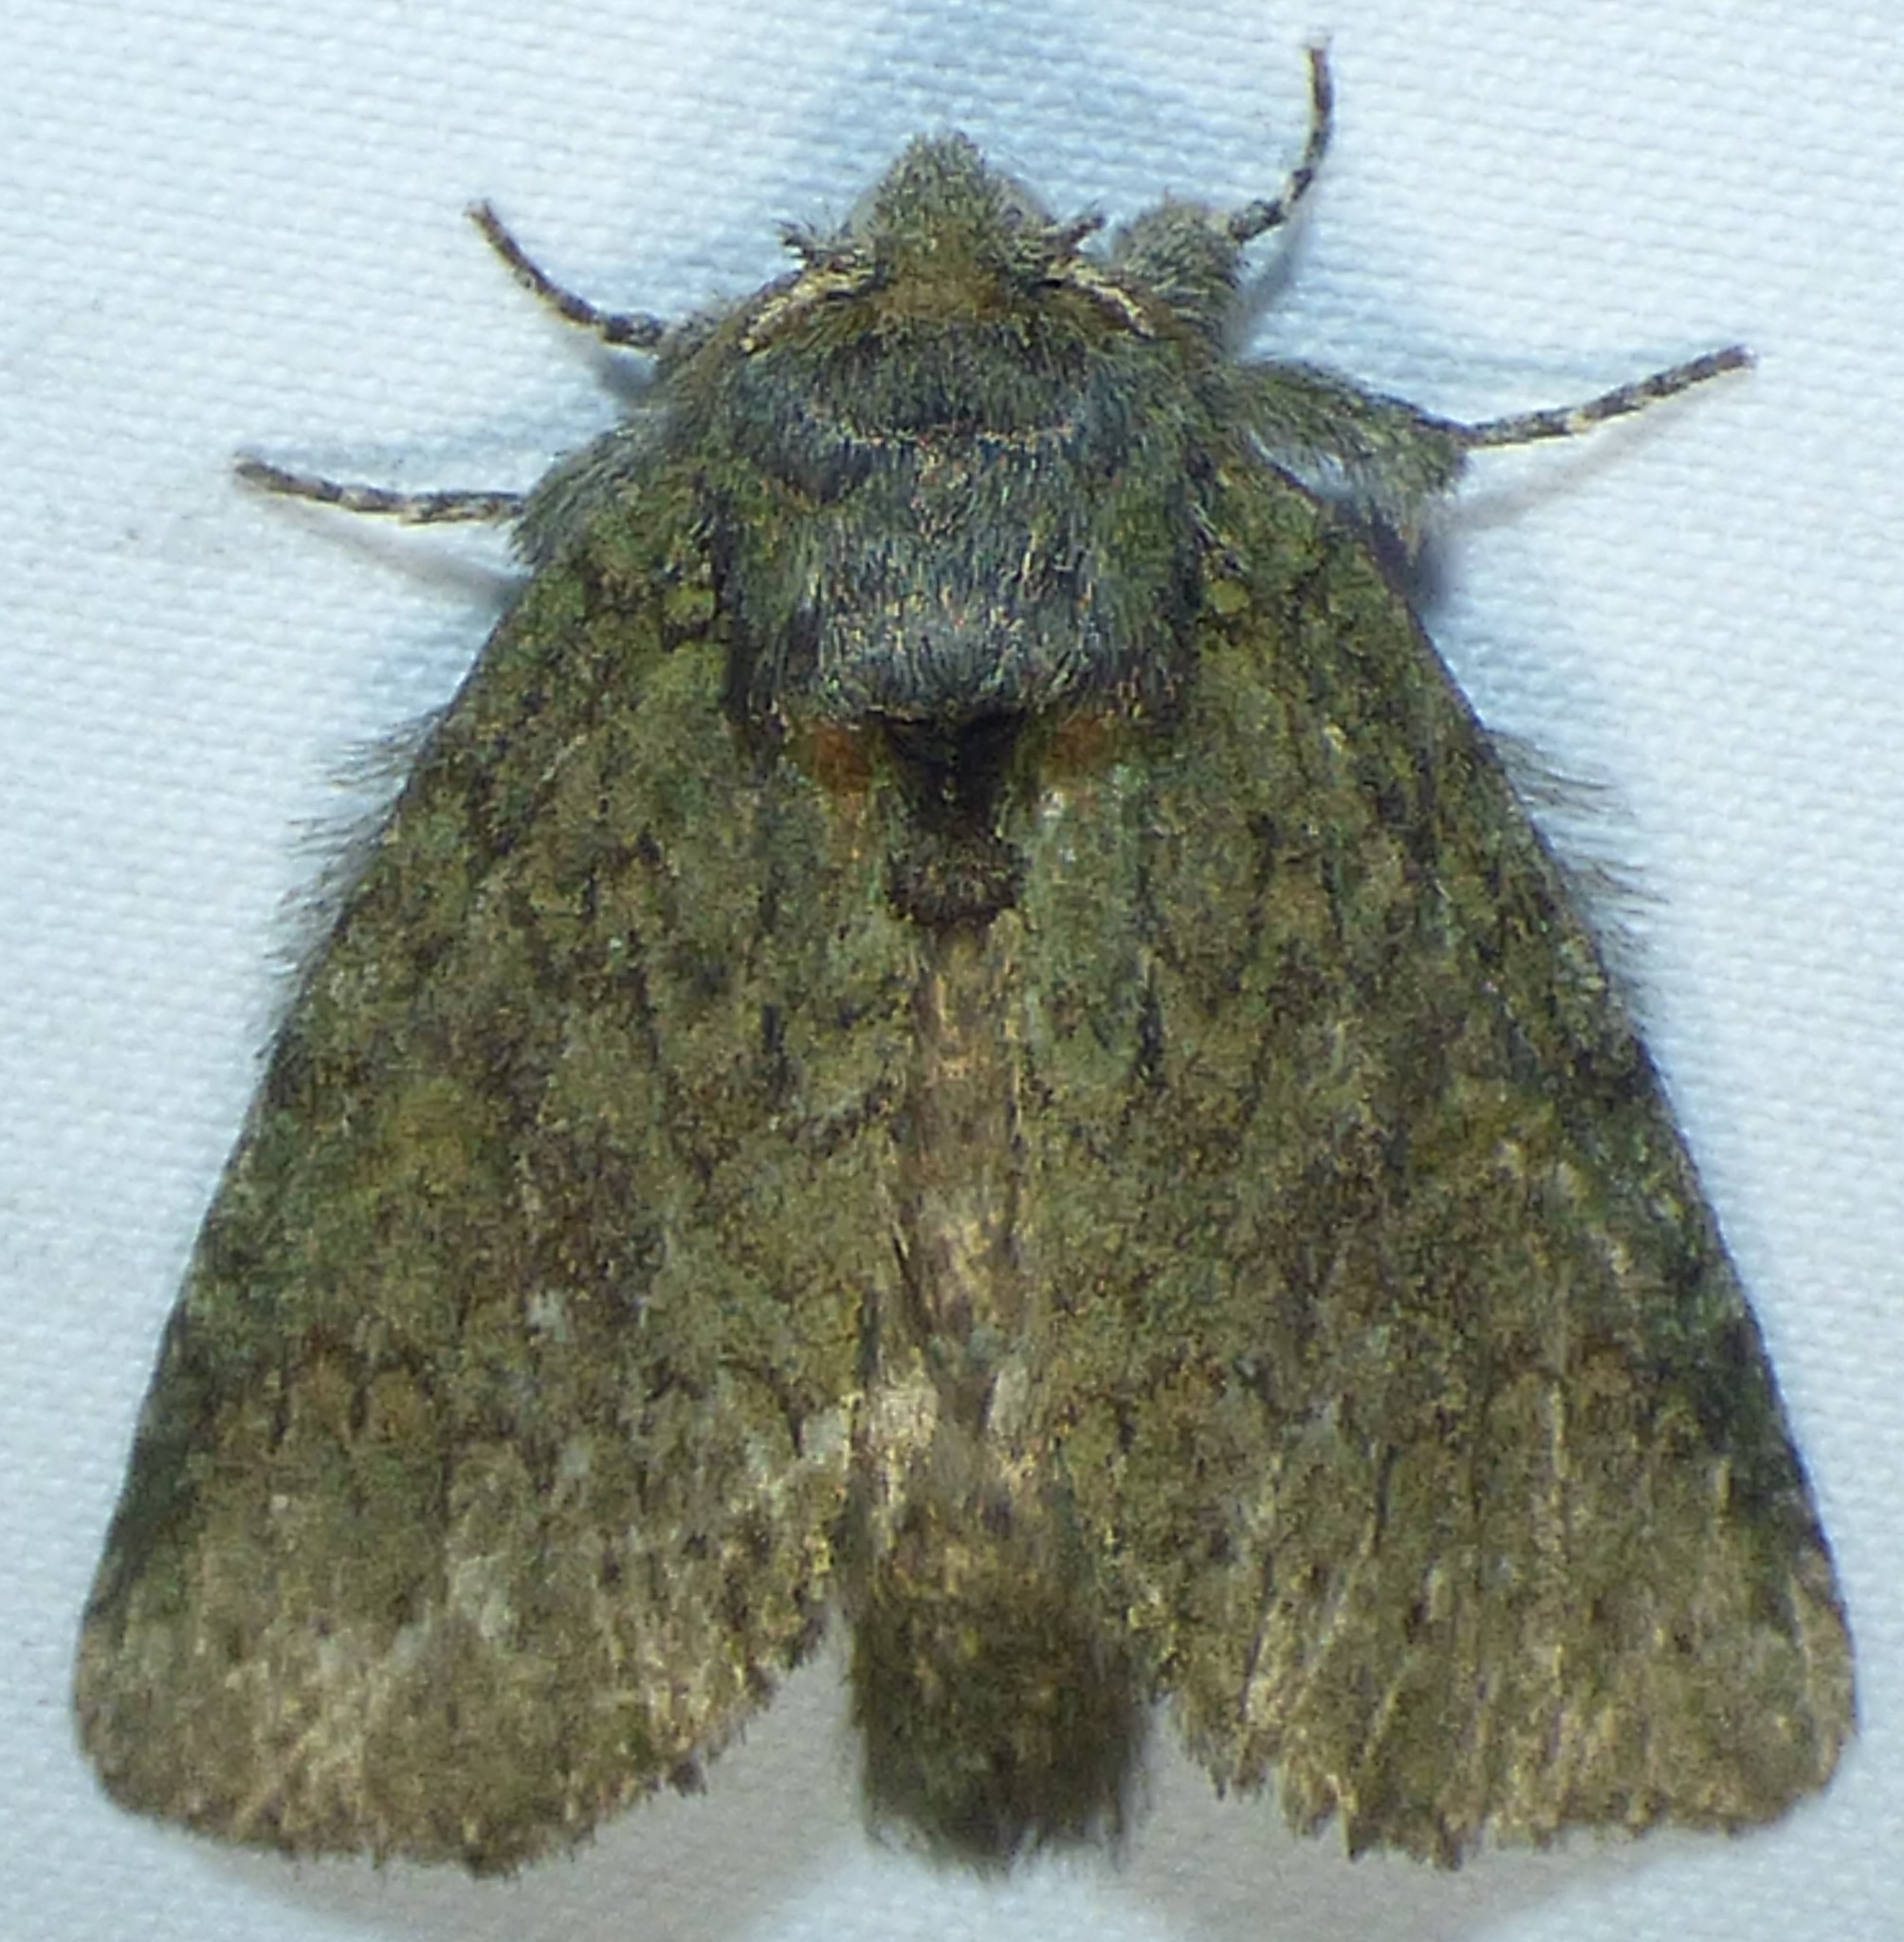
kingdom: Animalia
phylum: Arthropoda
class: Insecta
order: Lepidoptera
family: Notodontidae
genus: Disphragis
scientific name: Disphragis Cecrita guttivitta
